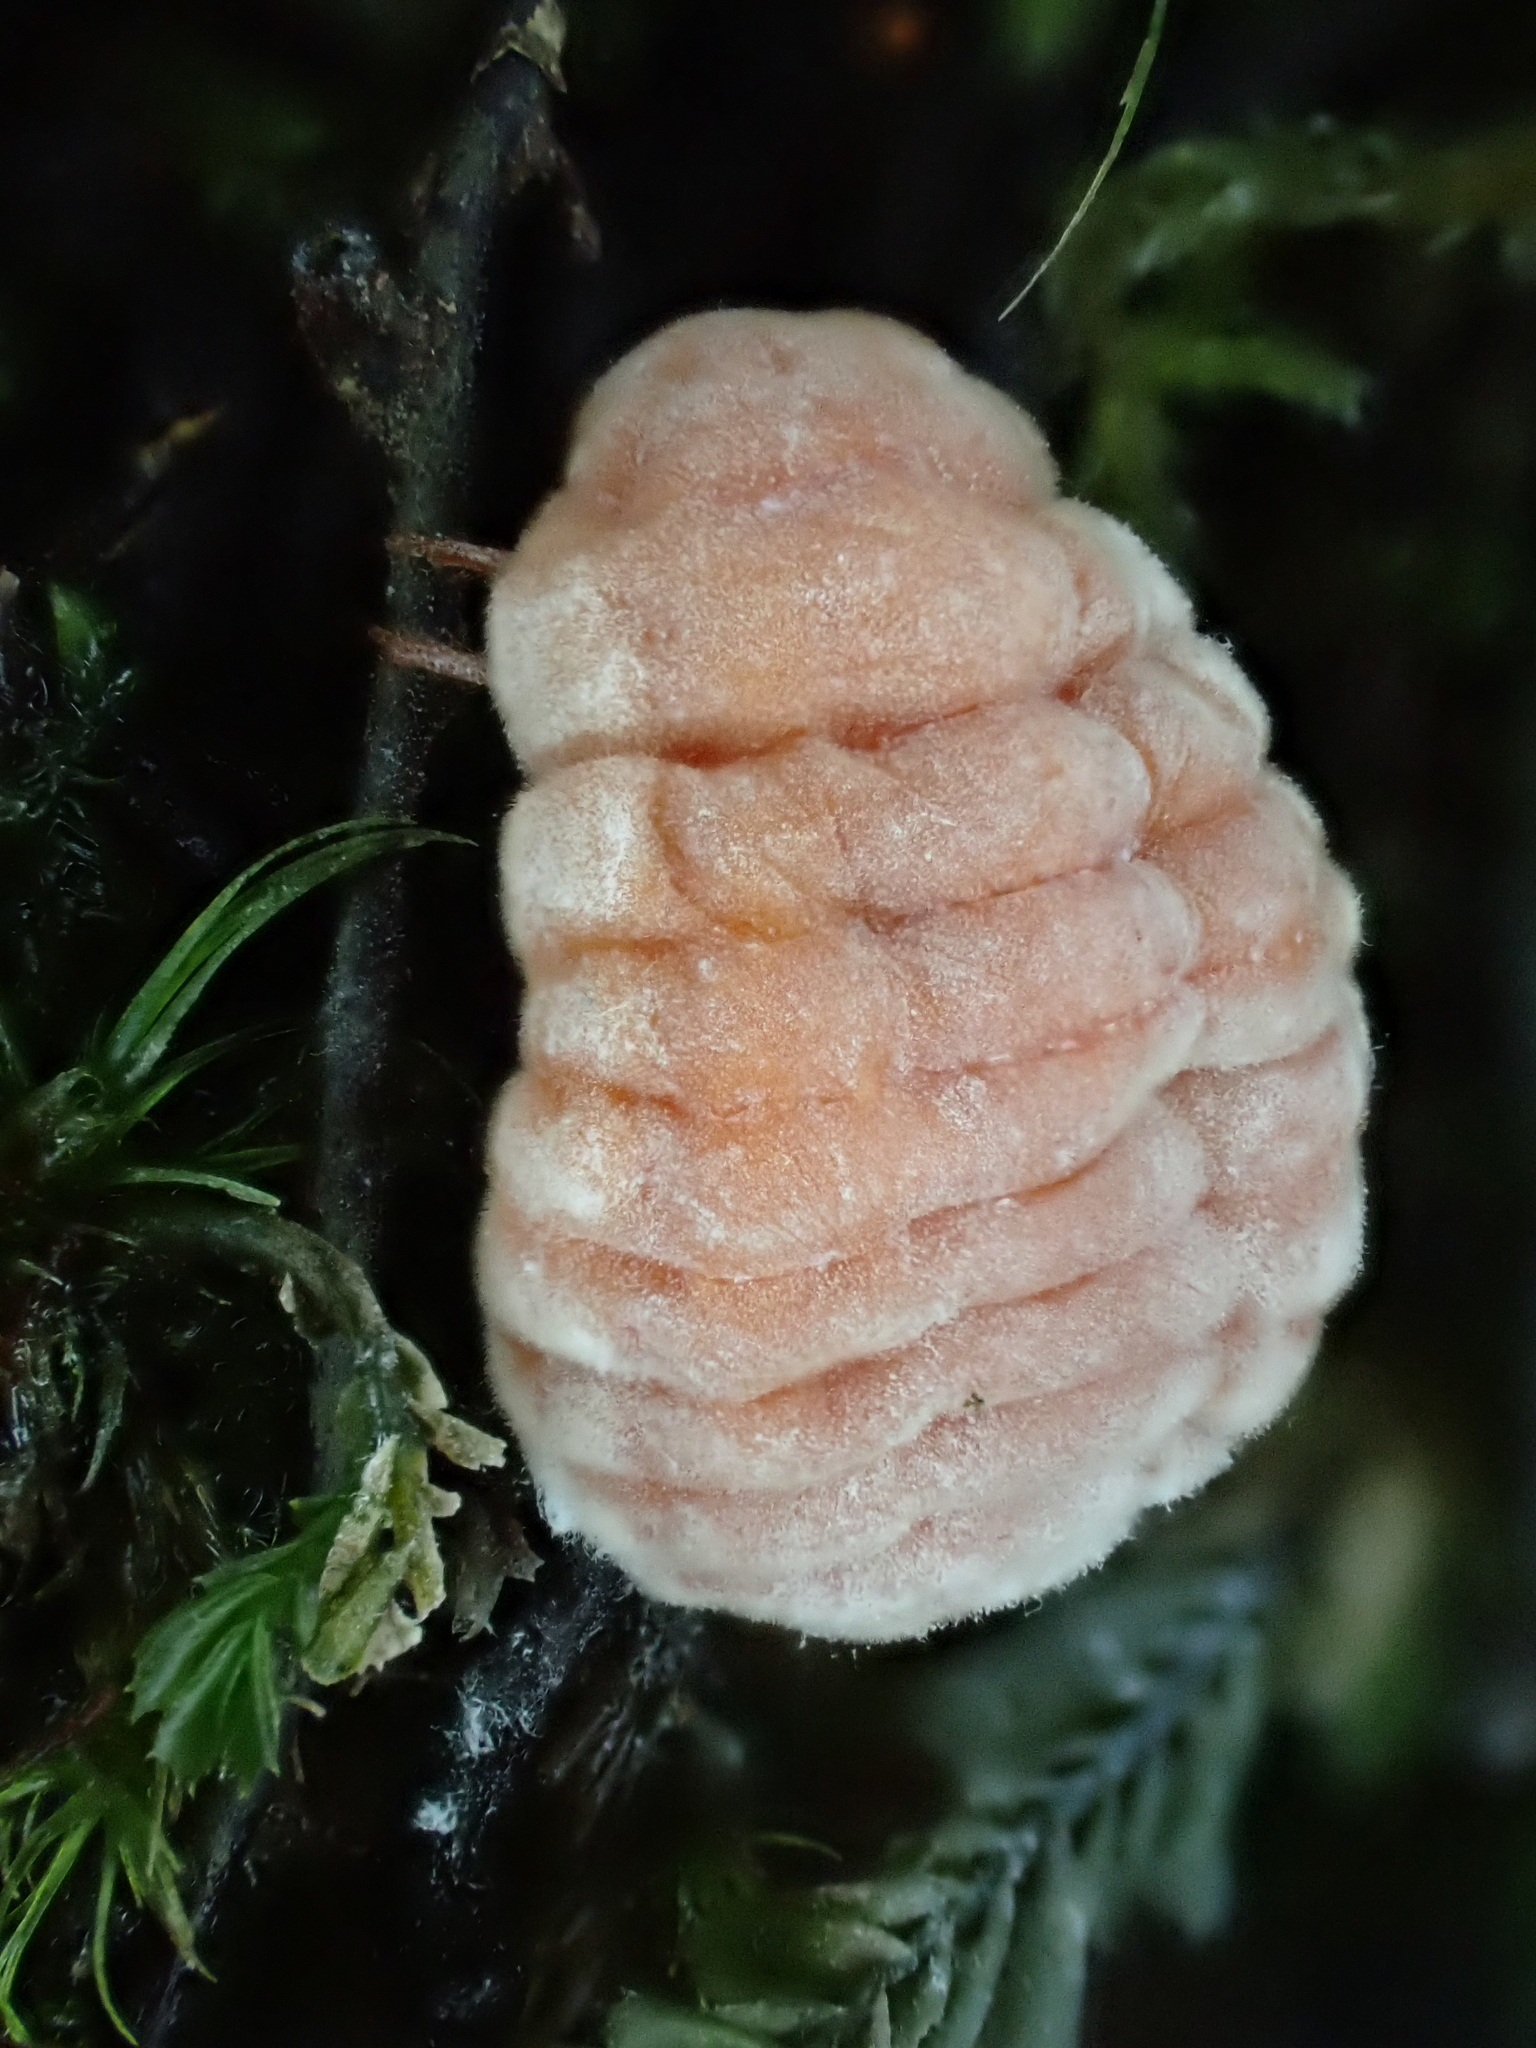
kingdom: Animalia
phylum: Arthropoda
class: Insecta
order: Hemiptera
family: Margarodidae
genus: Coelostomidia
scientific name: Coelostomidia zealandica
